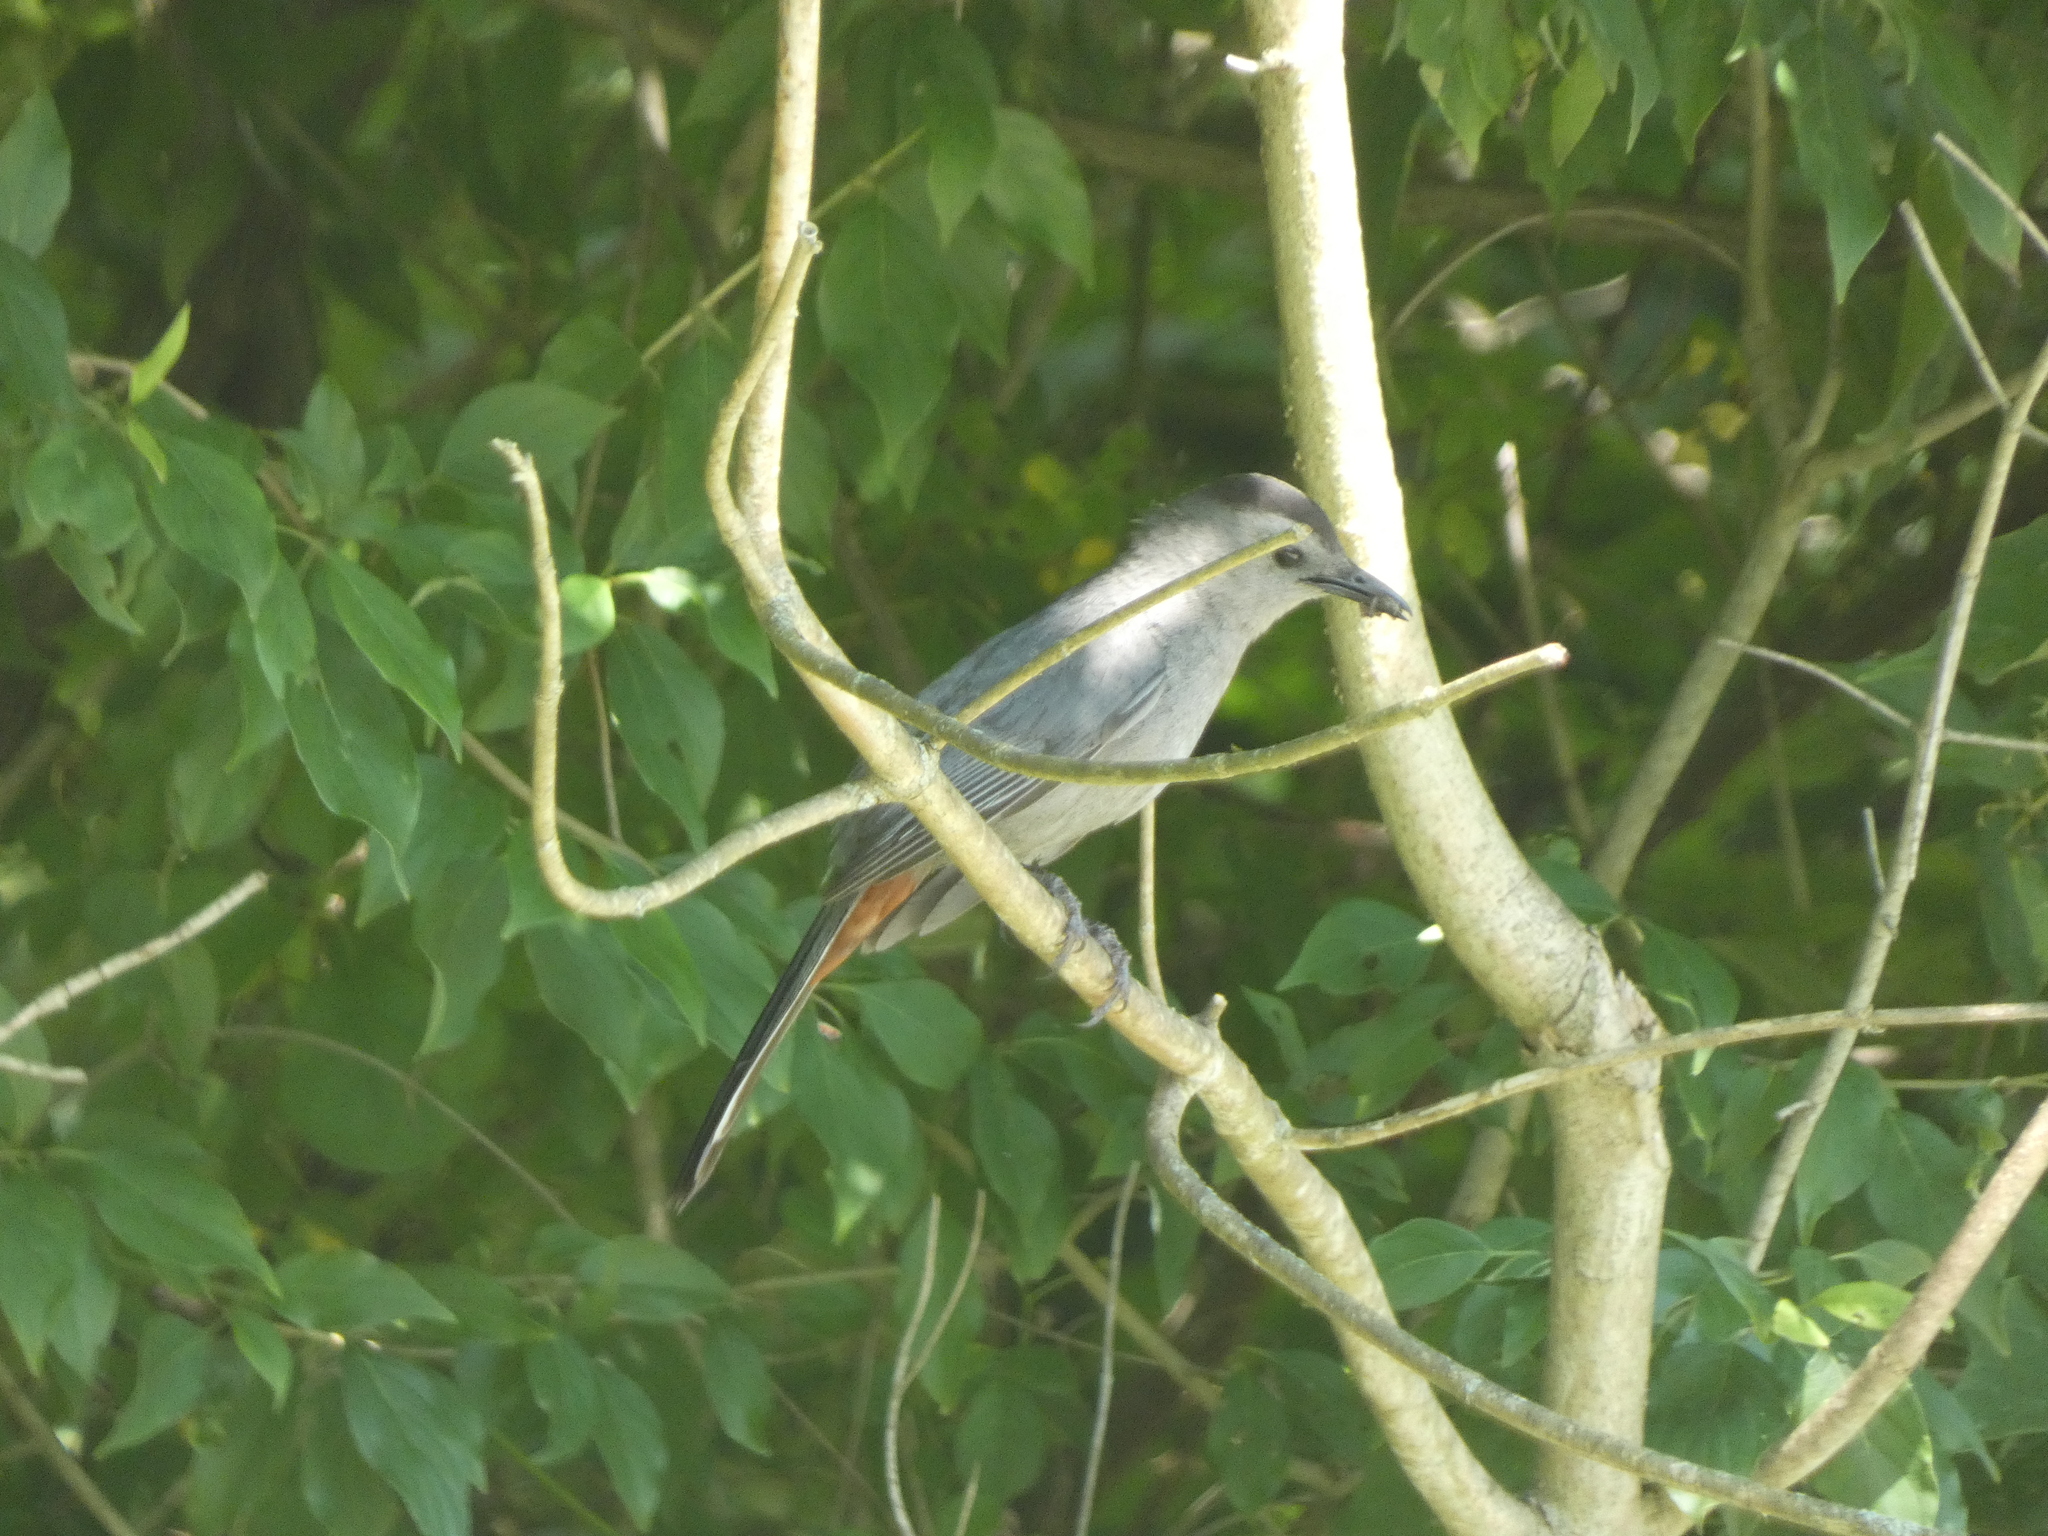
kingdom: Animalia
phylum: Chordata
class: Aves
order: Passeriformes
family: Mimidae
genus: Dumetella
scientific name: Dumetella carolinensis
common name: Gray catbird
